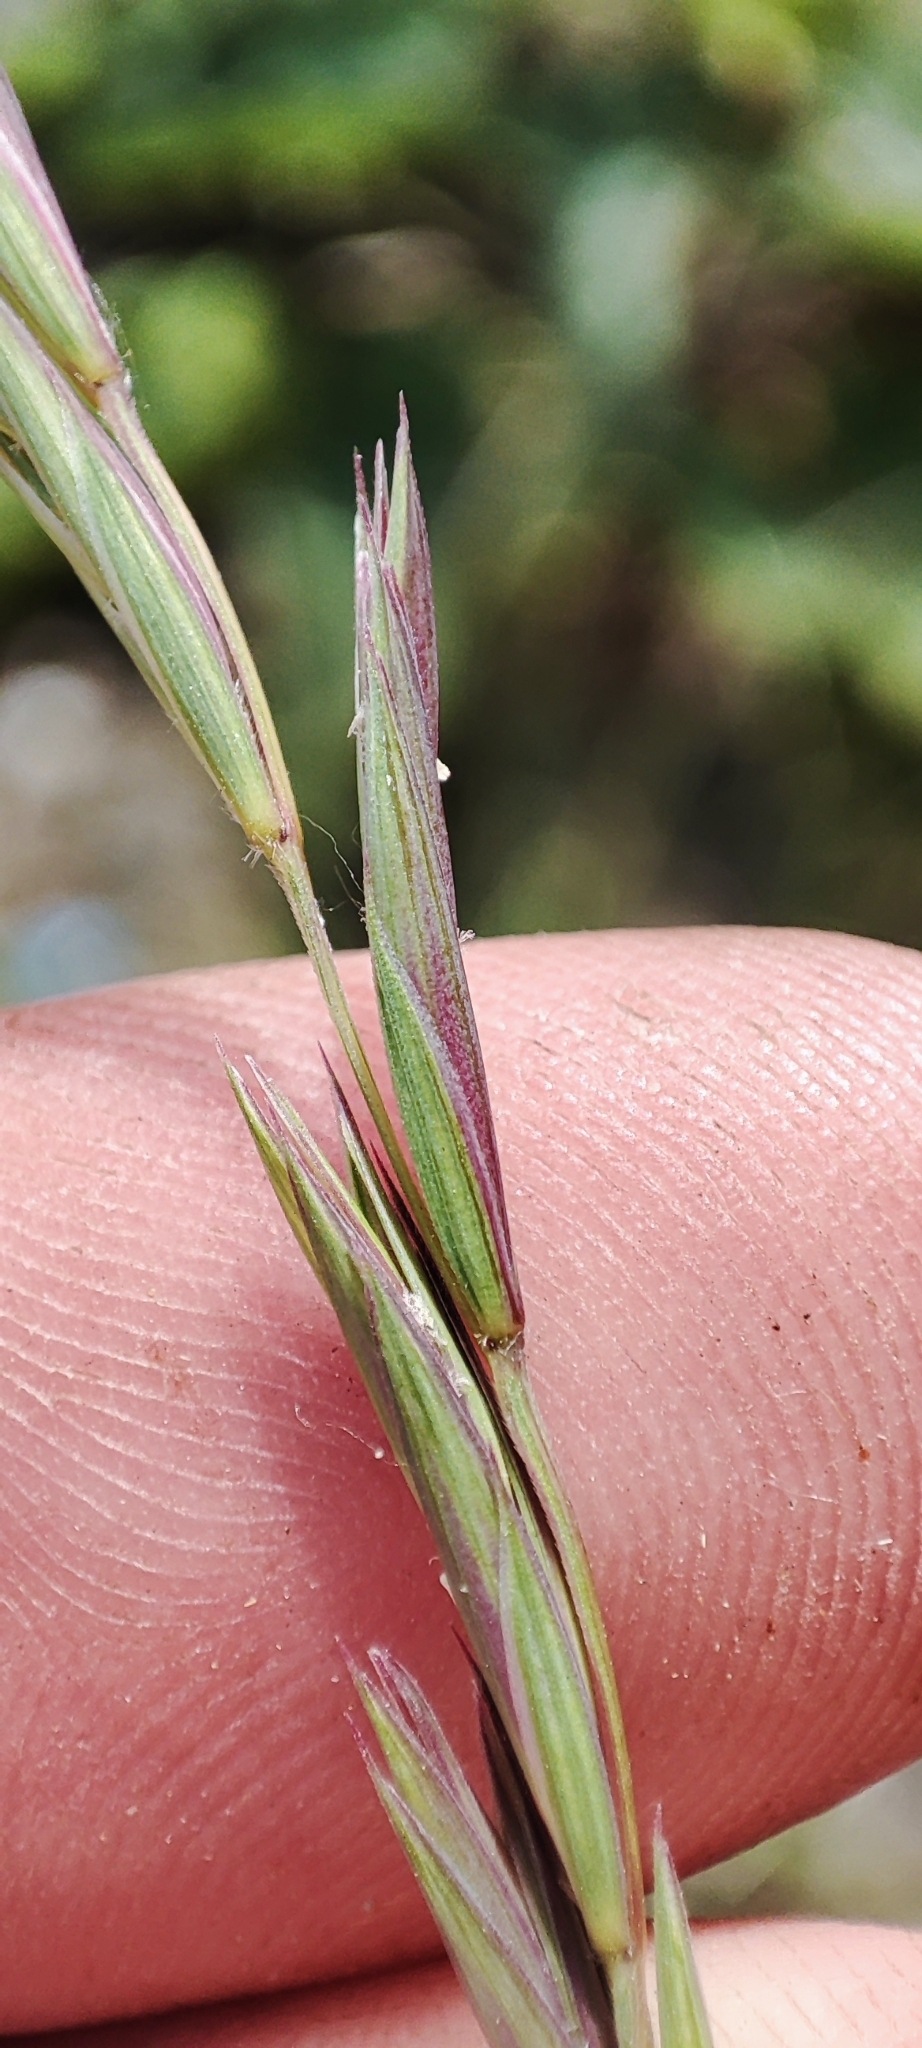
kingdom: Plantae
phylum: Tracheophyta
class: Liliopsida
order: Poales
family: Poaceae
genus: Elymus
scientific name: Elymus fibrosus
